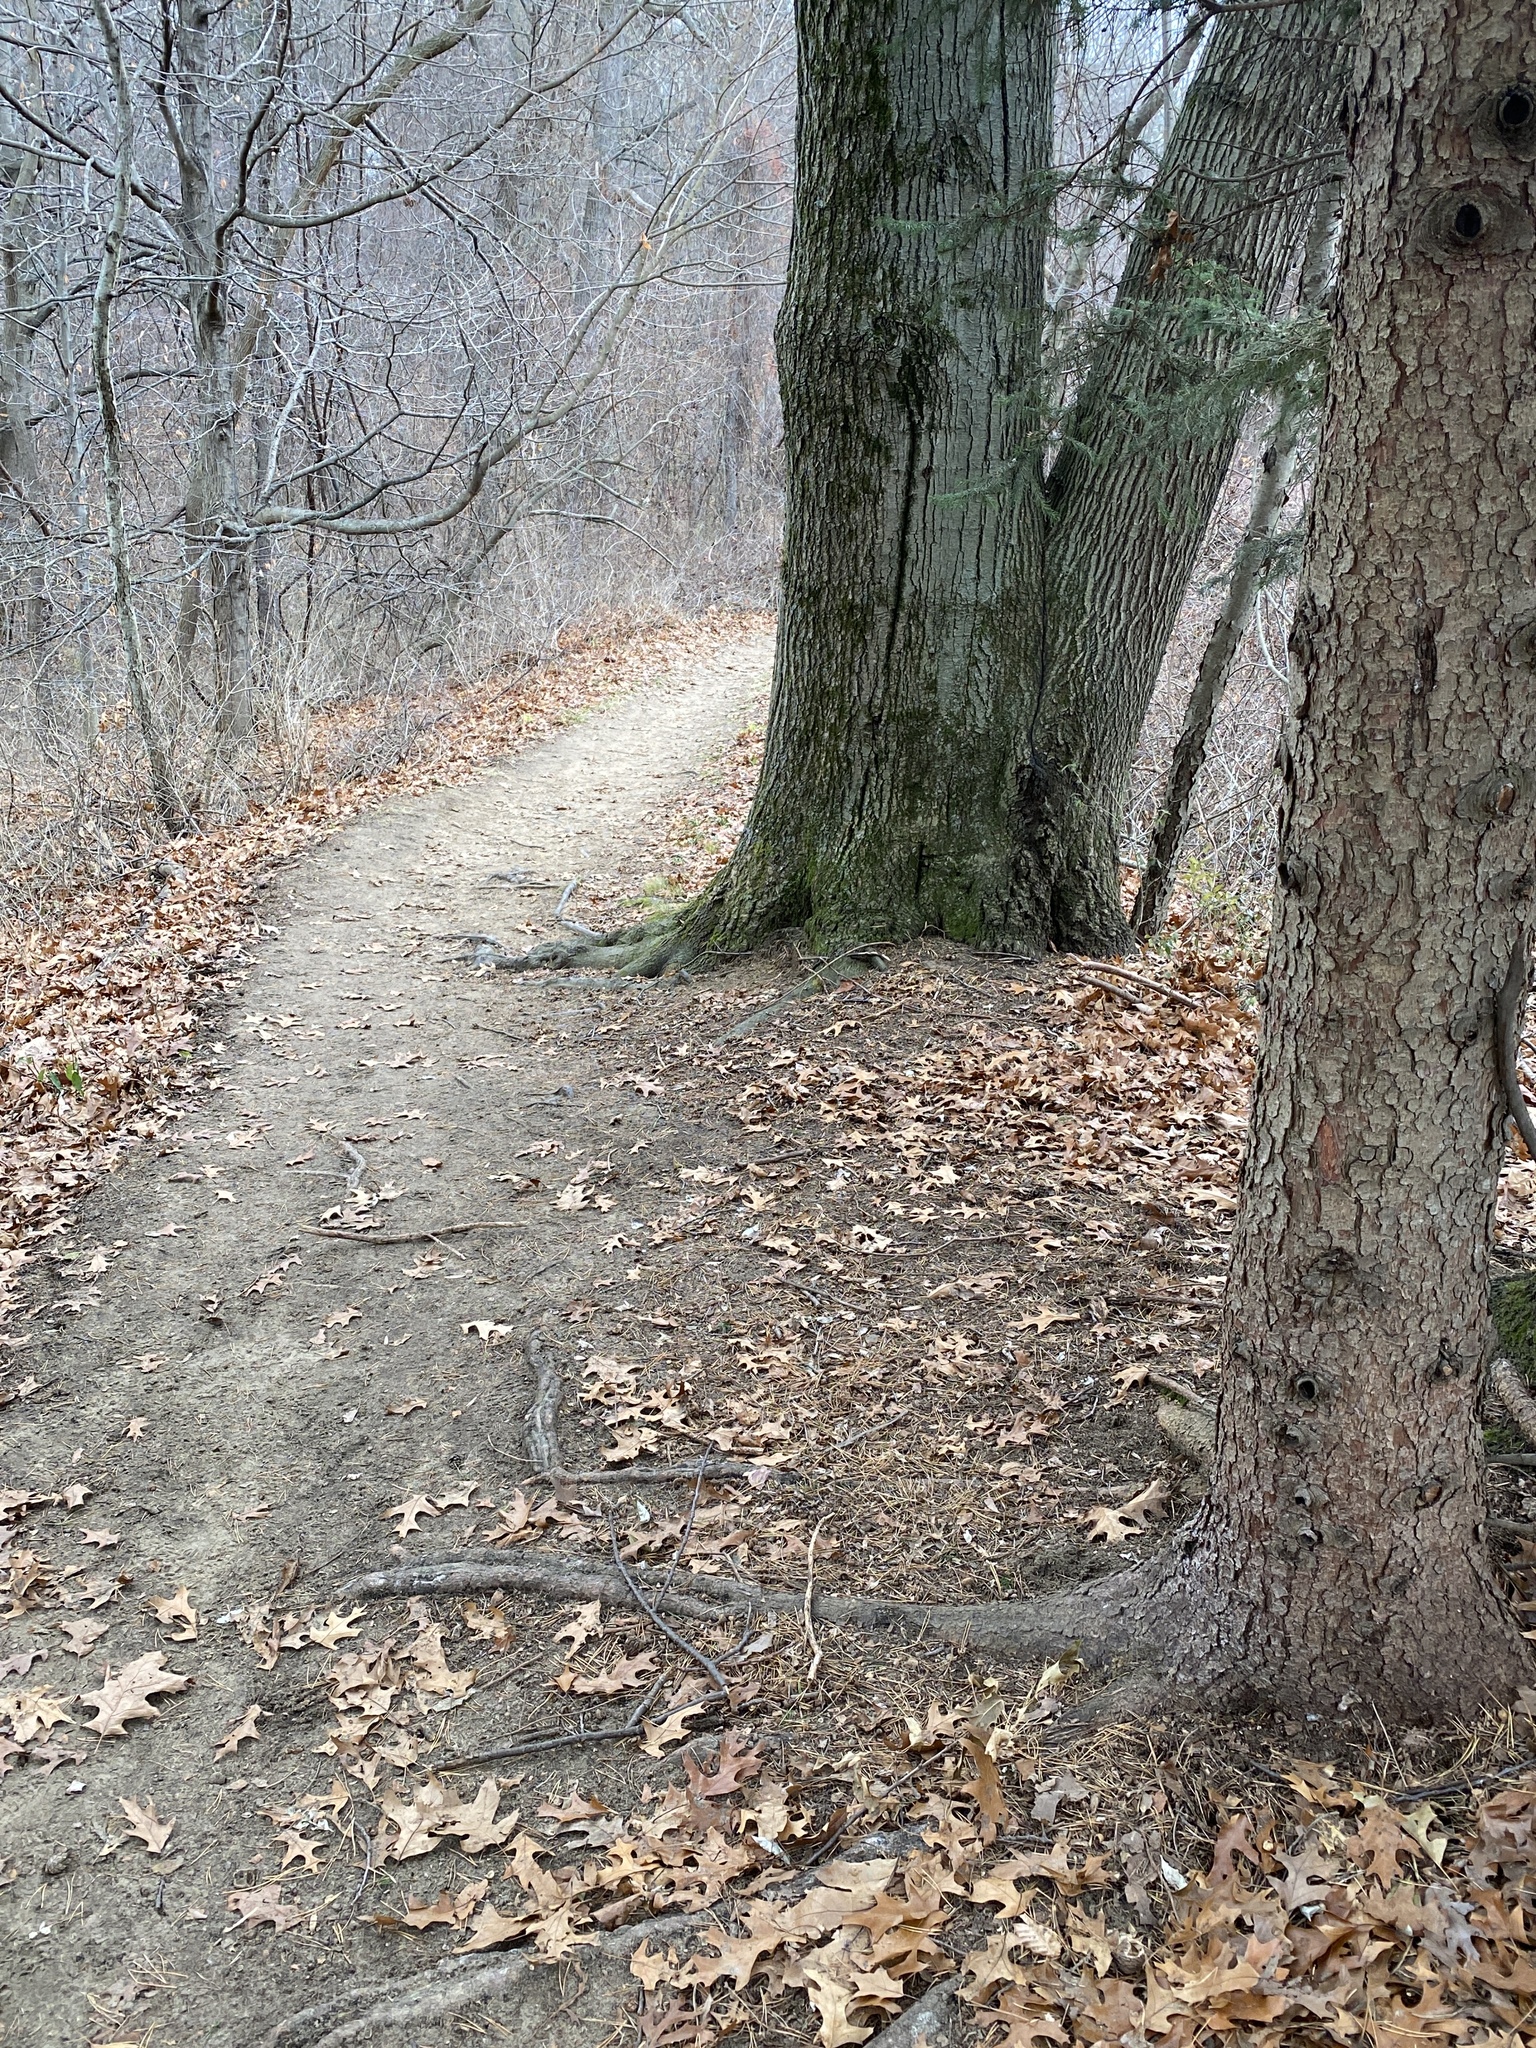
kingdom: Plantae
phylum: Tracheophyta
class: Pinopsida
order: Pinales
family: Pinaceae
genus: Picea
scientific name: Picea glauca
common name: White spruce
